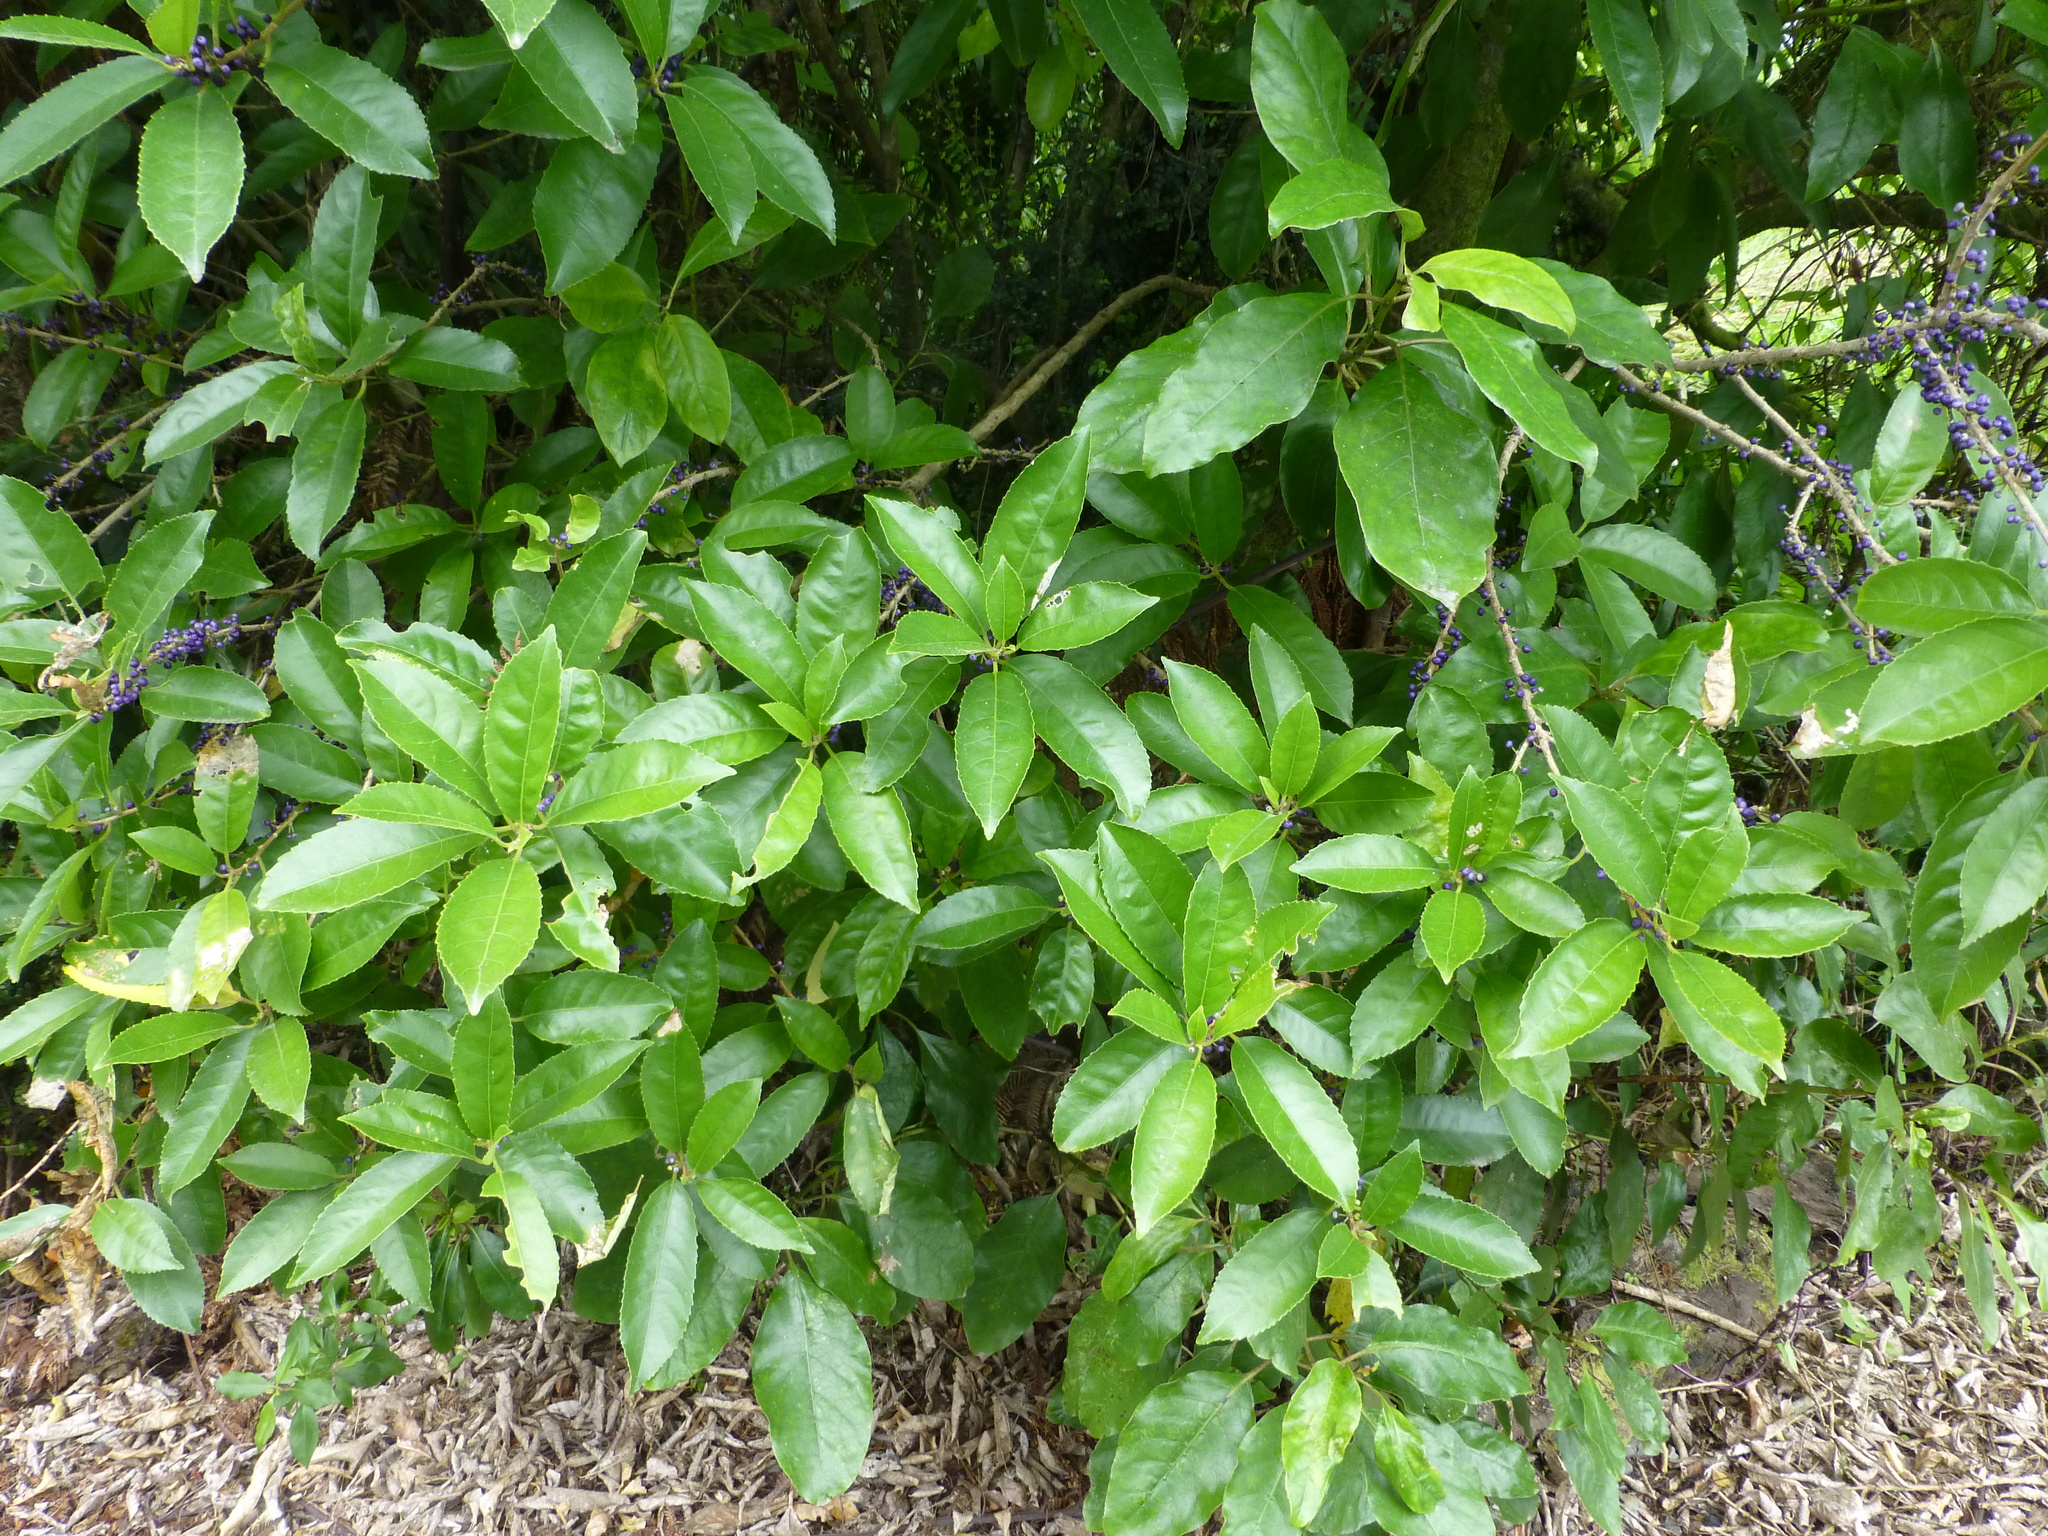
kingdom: Plantae
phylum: Tracheophyta
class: Magnoliopsida
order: Malpighiales
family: Violaceae
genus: Melicytus
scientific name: Melicytus ramiflorus
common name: Mahoe
